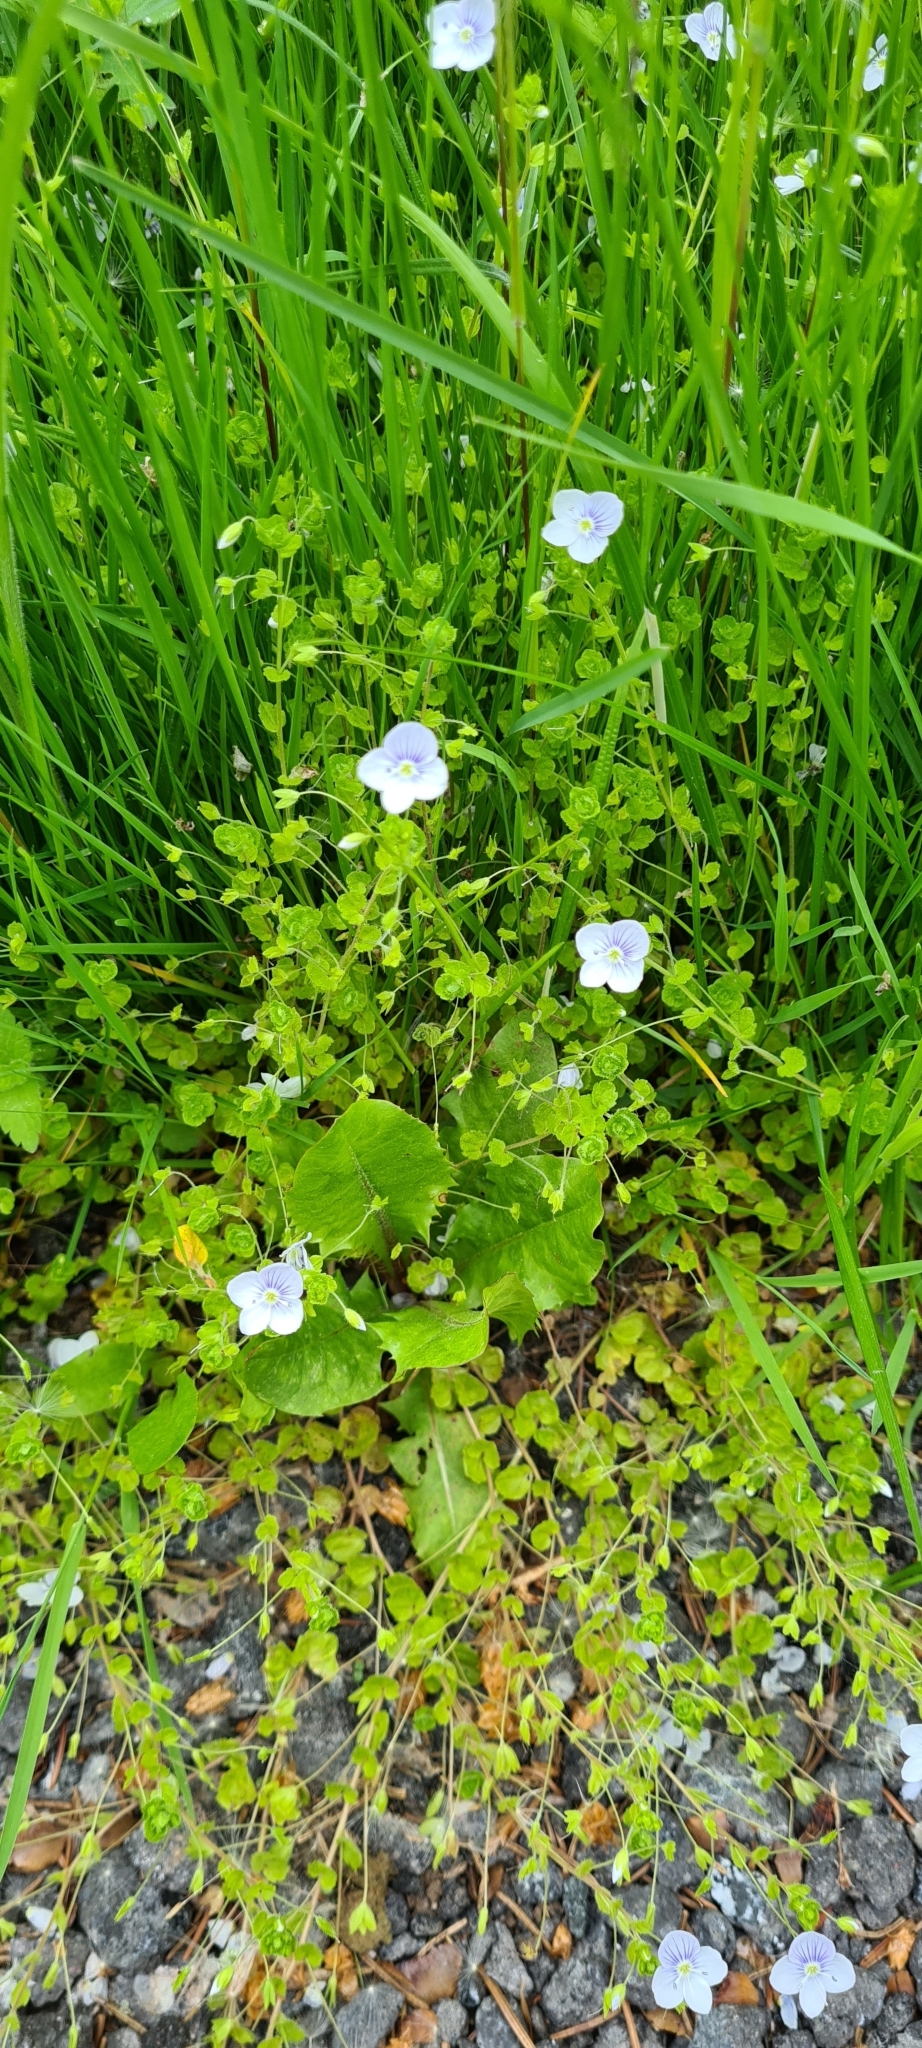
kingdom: Plantae
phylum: Tracheophyta
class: Magnoliopsida
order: Lamiales
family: Plantaginaceae
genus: Veronica
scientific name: Veronica filiformis
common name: Slender speedwell
